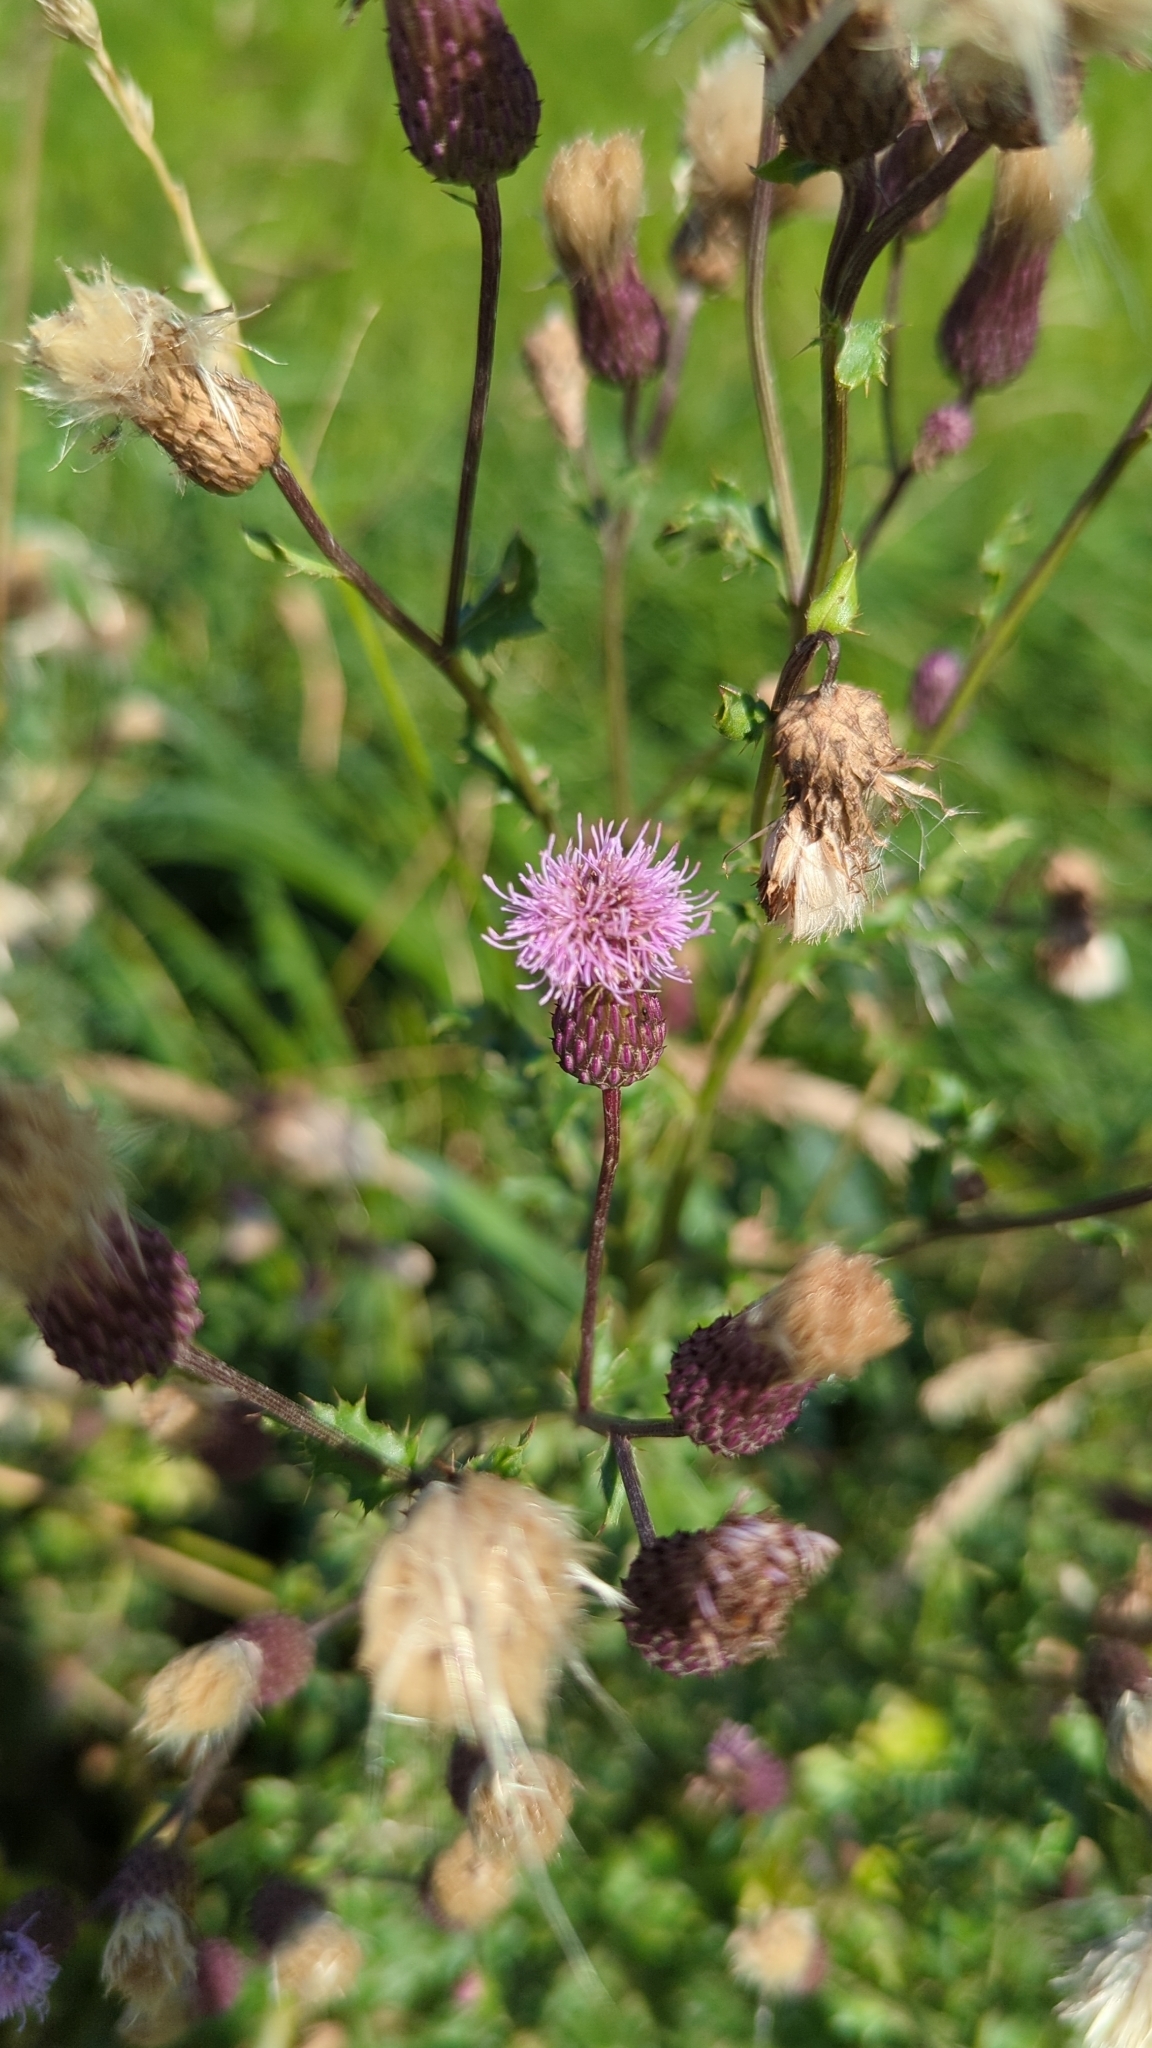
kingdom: Plantae
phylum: Tracheophyta
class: Magnoliopsida
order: Asterales
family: Asteraceae
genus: Cirsium
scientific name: Cirsium arvense
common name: Creeping thistle
